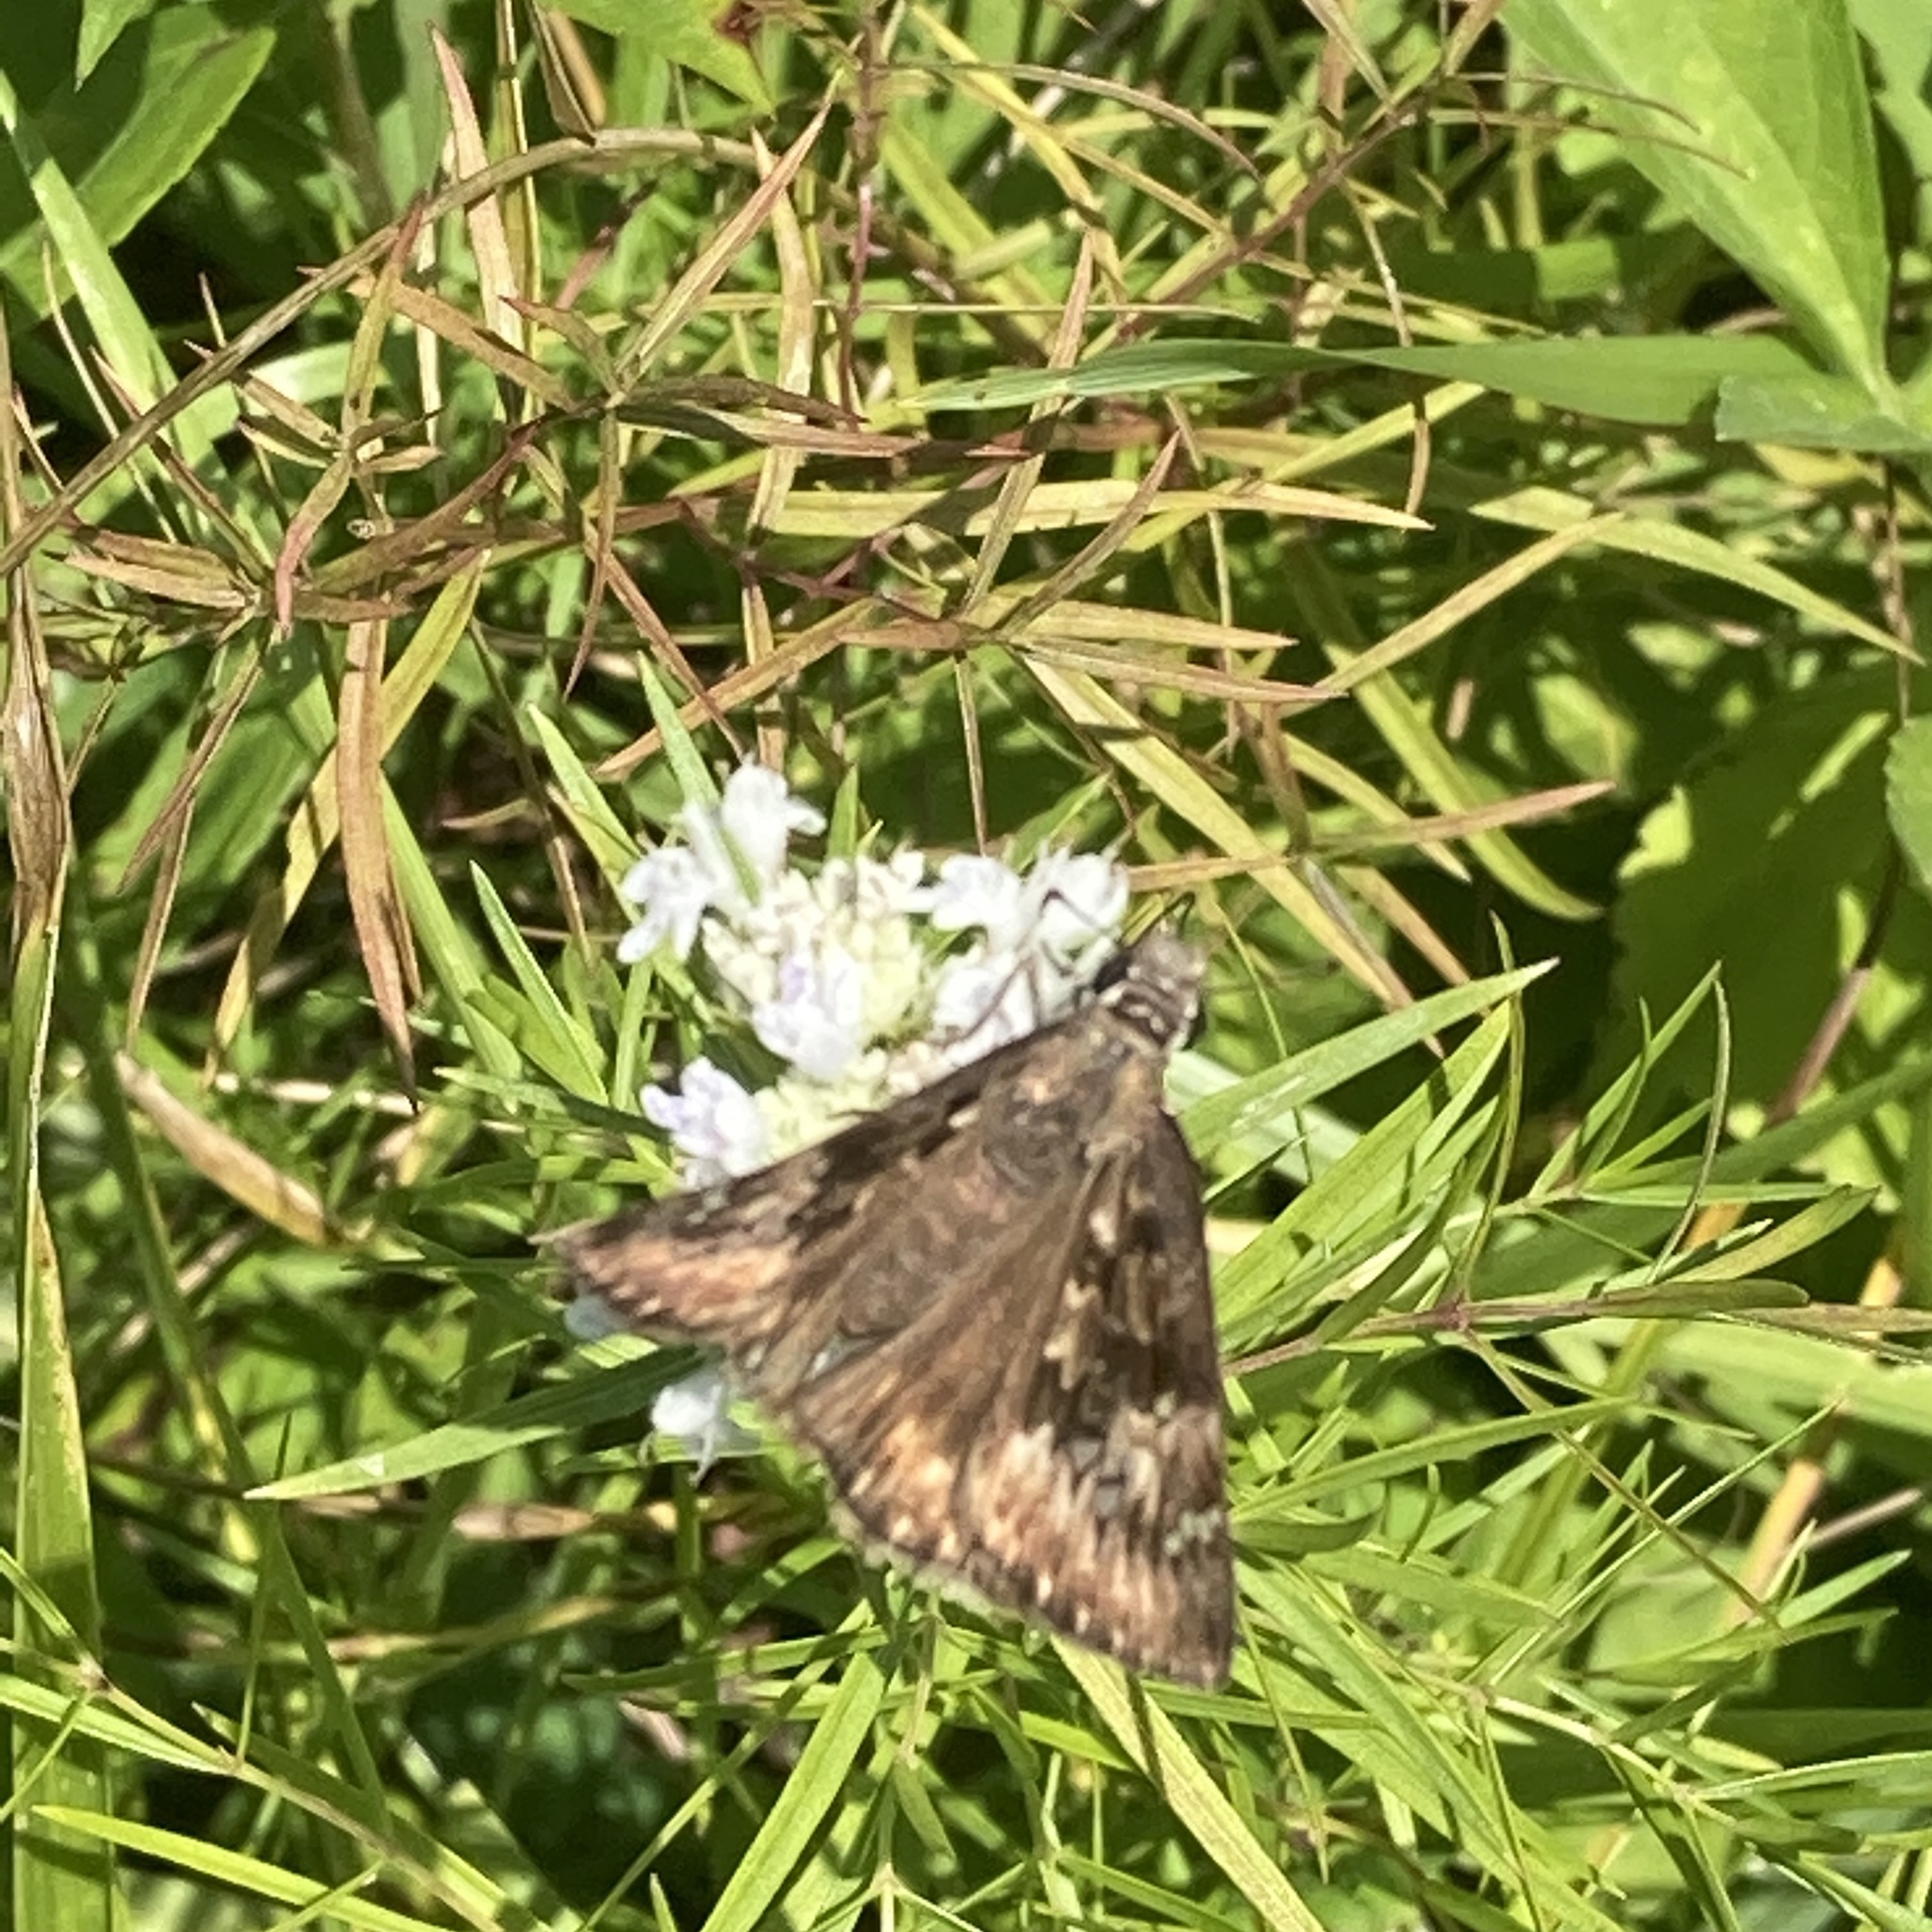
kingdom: Animalia
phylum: Arthropoda
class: Insecta
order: Lepidoptera
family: Hesperiidae
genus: Erynnis
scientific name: Erynnis horatius
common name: Horace's duskywing
